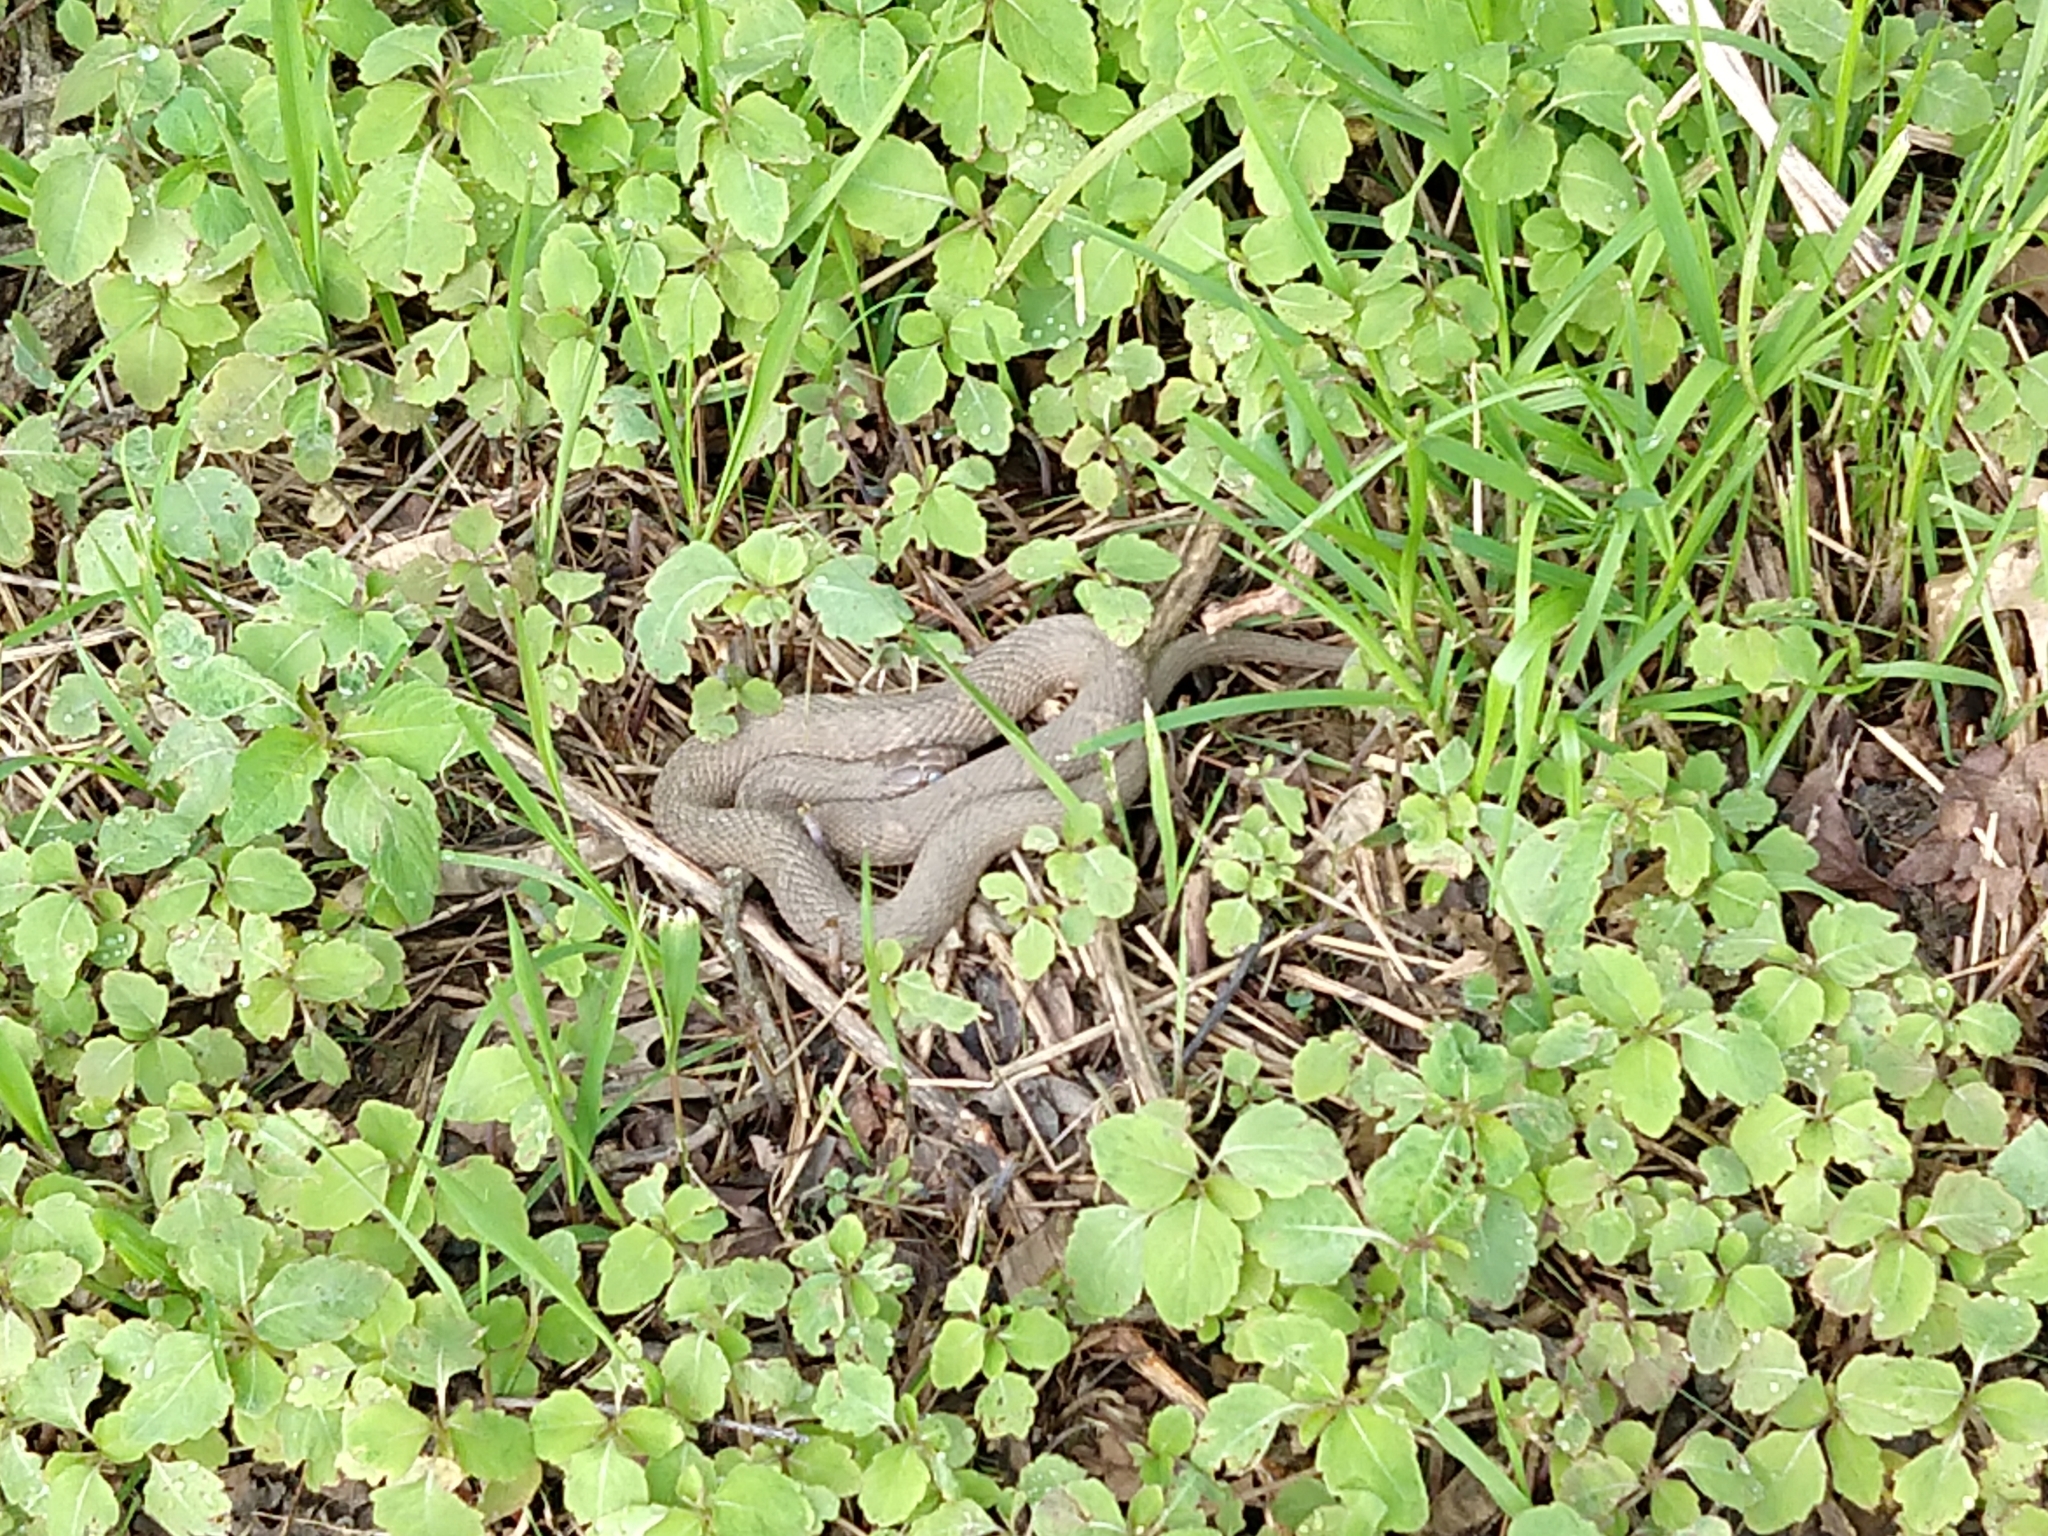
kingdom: Animalia
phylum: Chordata
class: Squamata
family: Colubridae
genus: Nerodia
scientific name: Nerodia sipedon
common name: Northern water snake
